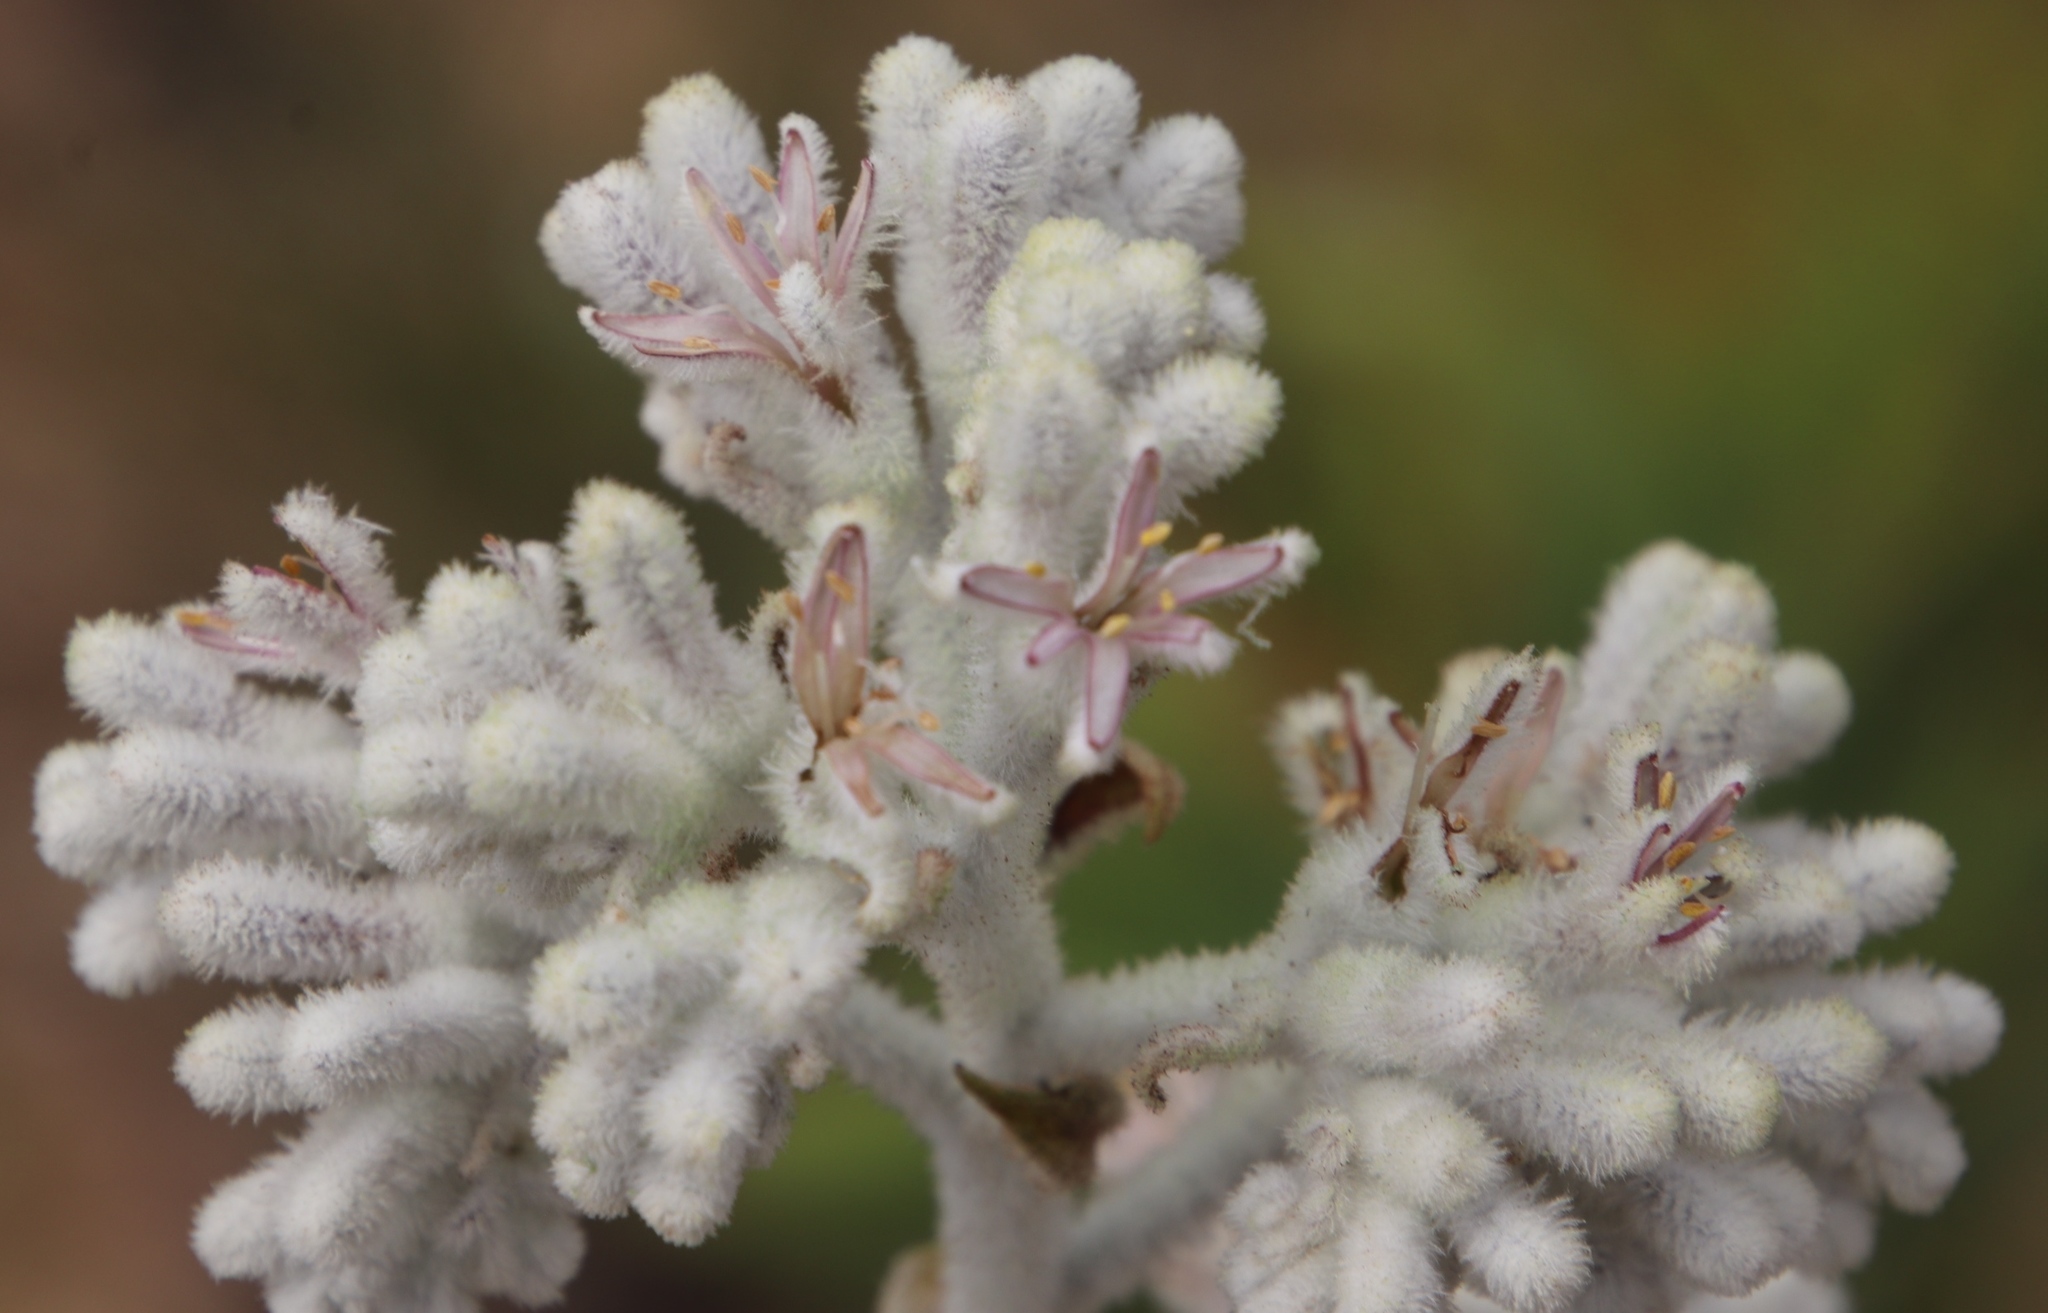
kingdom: Plantae
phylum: Tracheophyta
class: Liliopsida
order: Asparagales
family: Lanariaceae
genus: Lanaria
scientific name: Lanaria lanata
